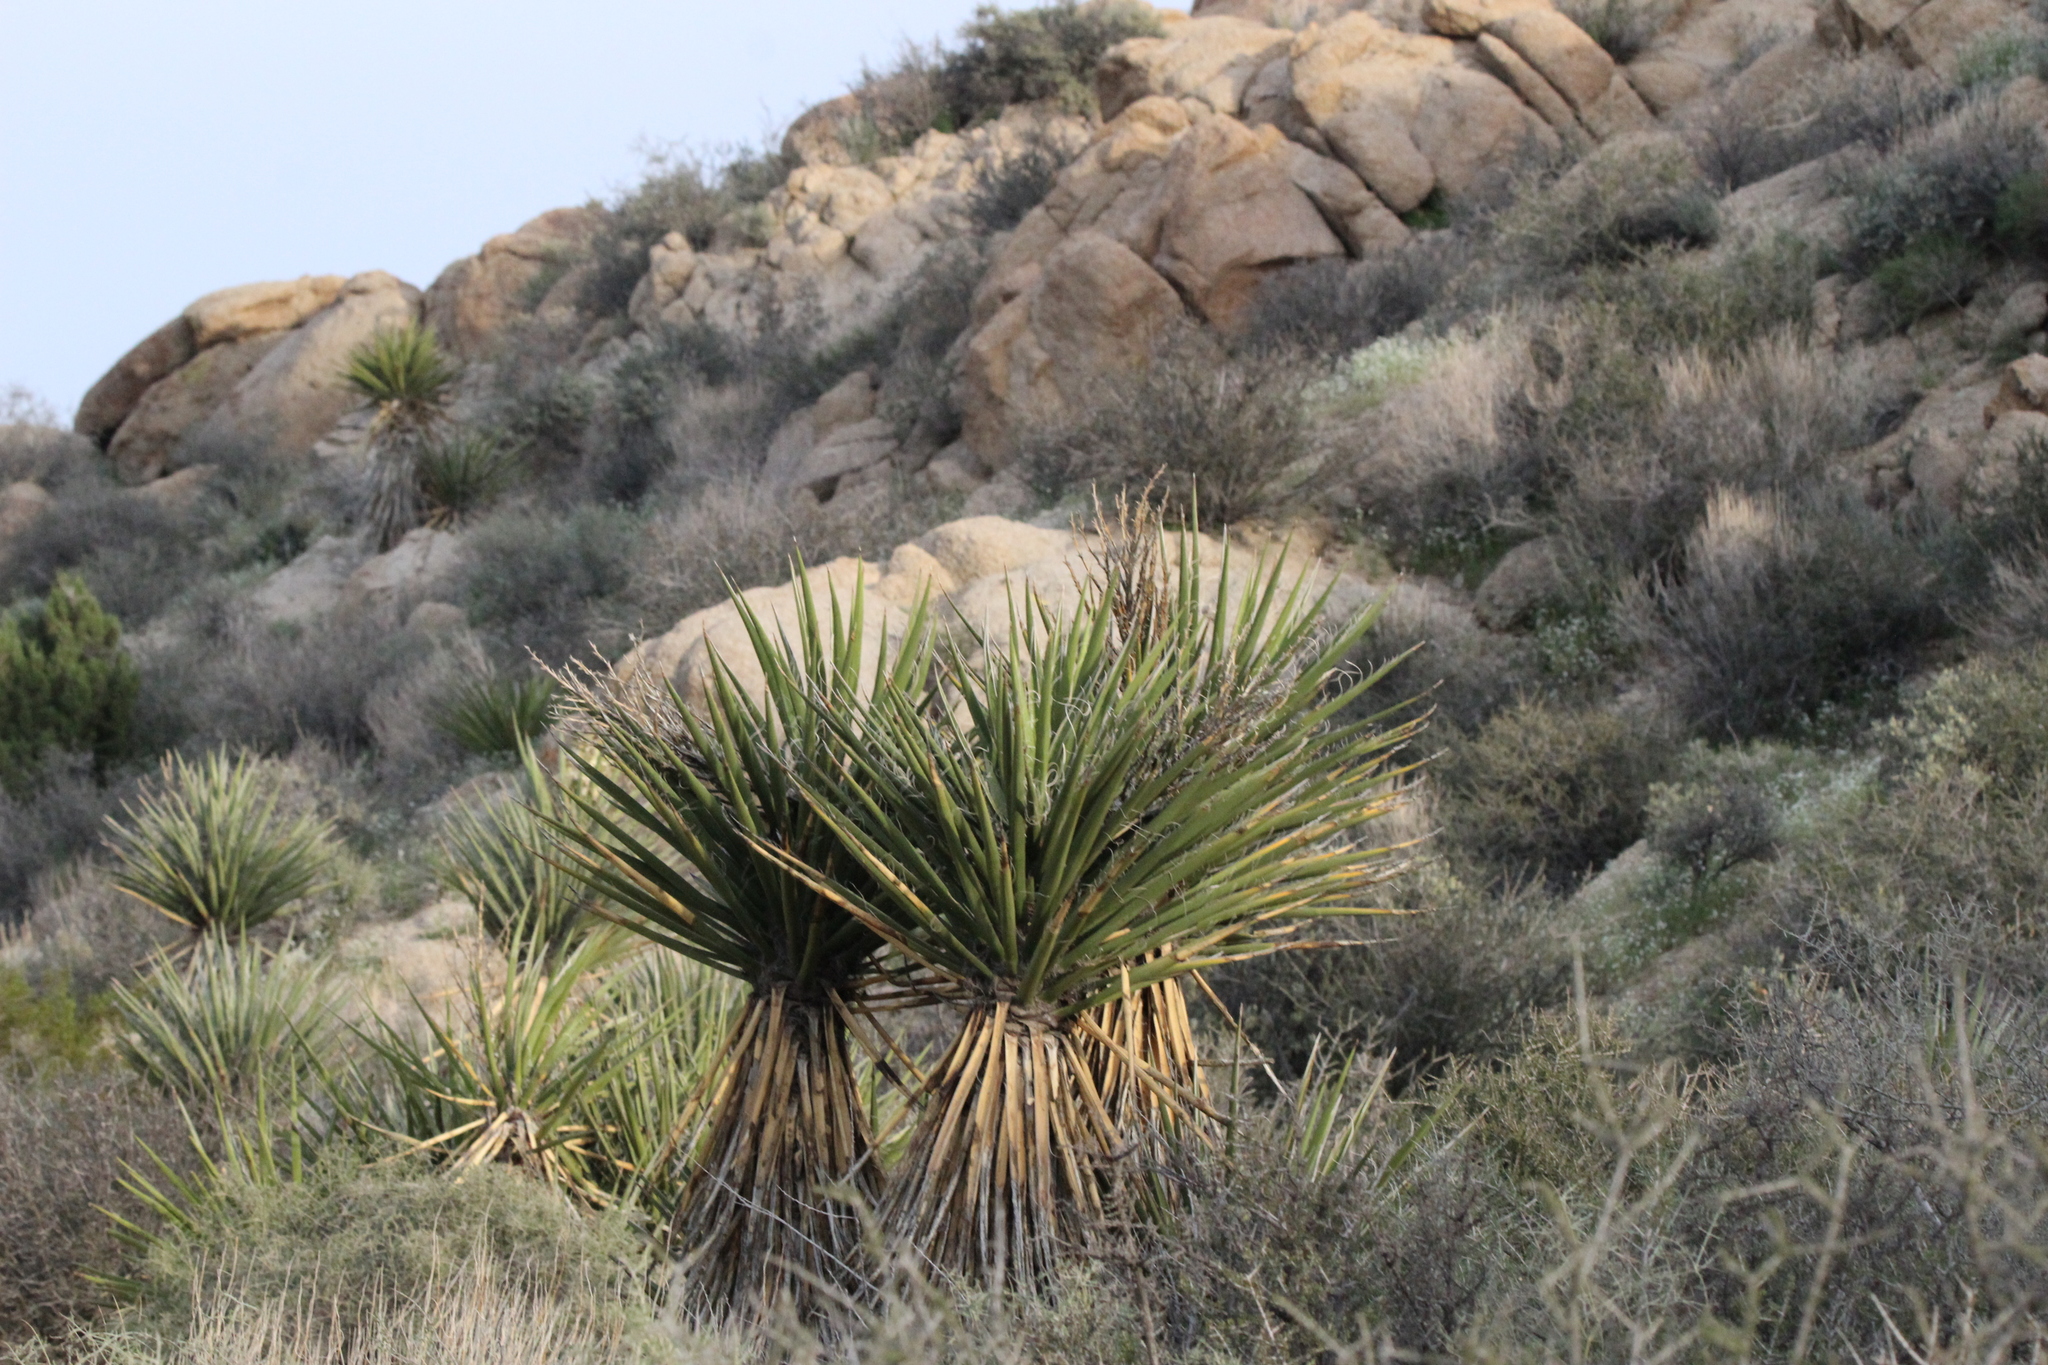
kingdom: Plantae
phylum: Tracheophyta
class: Liliopsida
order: Asparagales
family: Asparagaceae
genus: Yucca
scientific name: Yucca schidigera
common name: Mojave yucca
